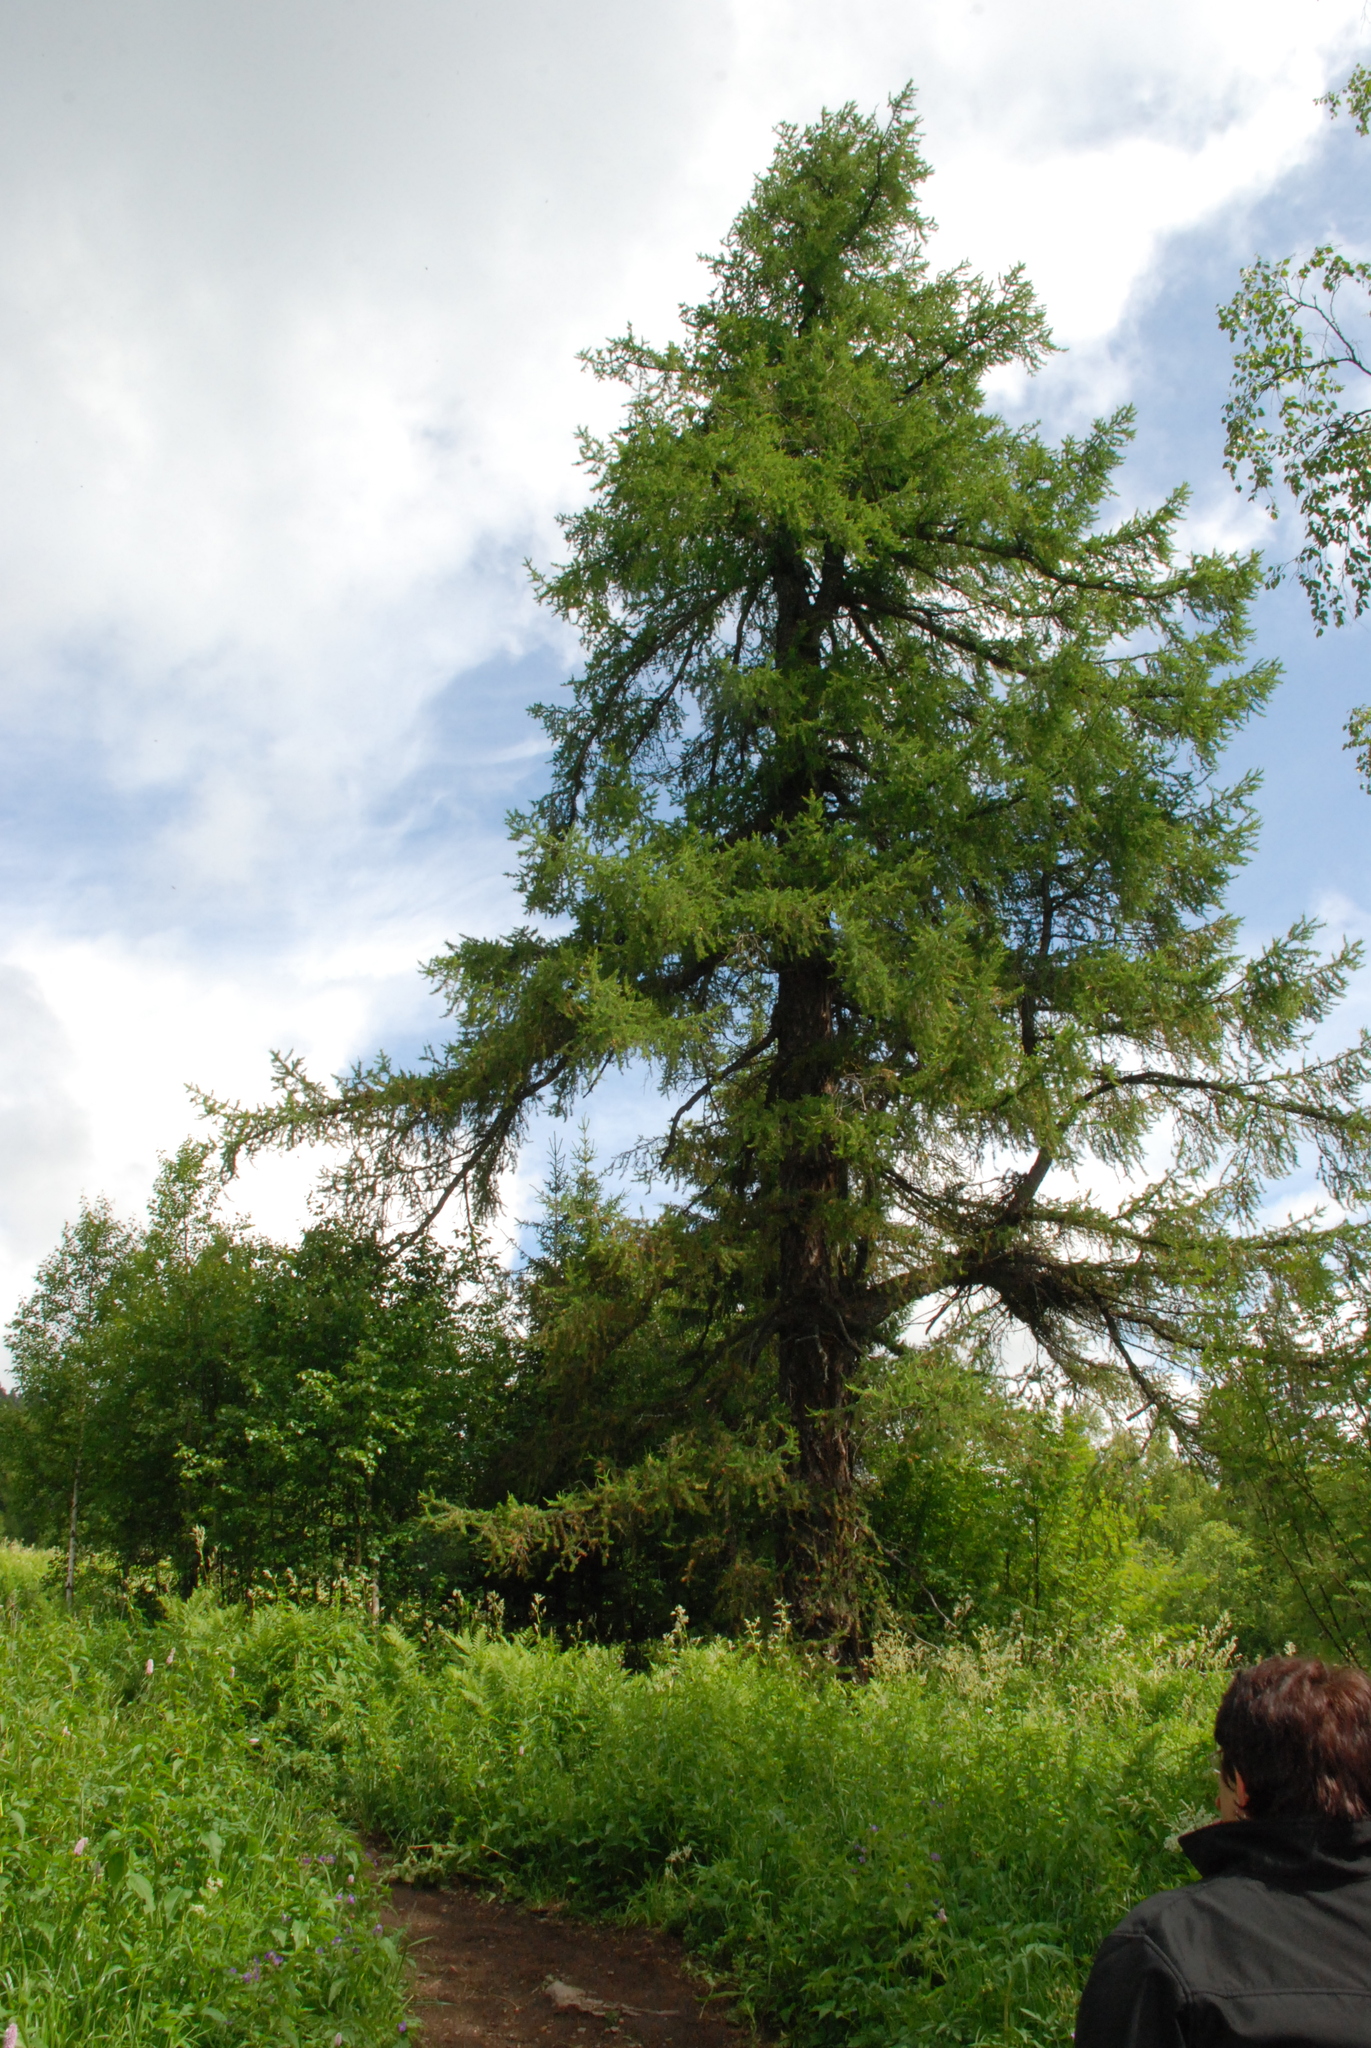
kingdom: Plantae
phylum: Tracheophyta
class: Pinopsida
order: Pinales
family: Pinaceae
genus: Larix
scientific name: Larix sibirica
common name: Siberian larch
